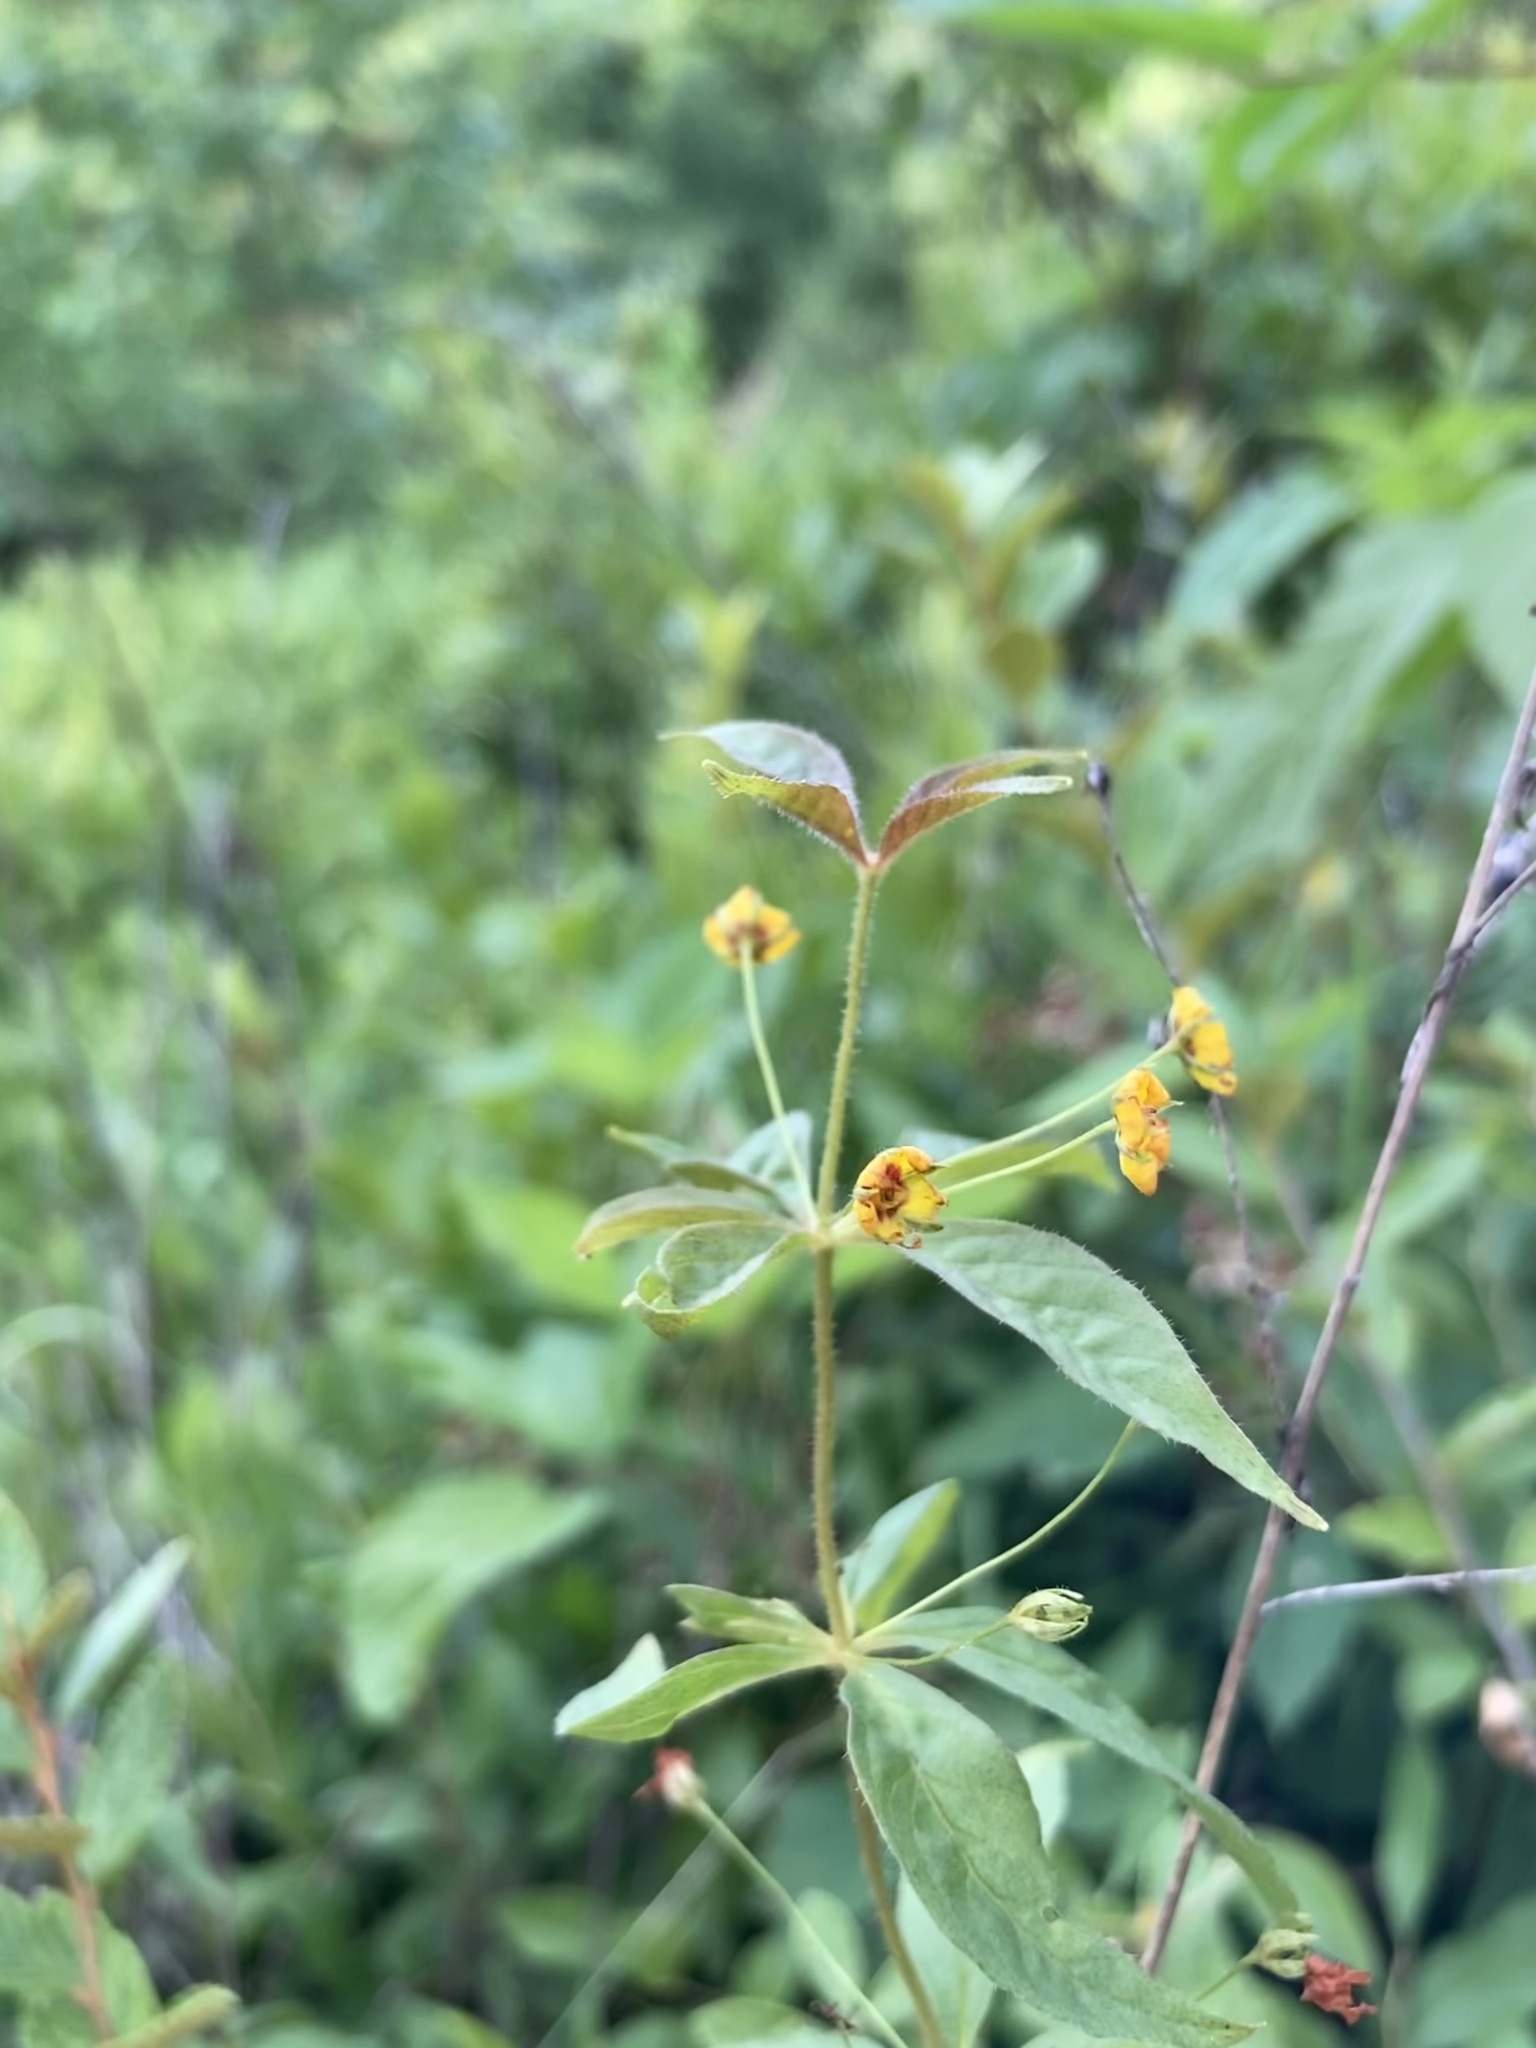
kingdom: Plantae
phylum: Tracheophyta
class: Magnoliopsida
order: Ericales
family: Primulaceae
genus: Lysimachia
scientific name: Lysimachia quadrifolia
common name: Whorled loosestrife
